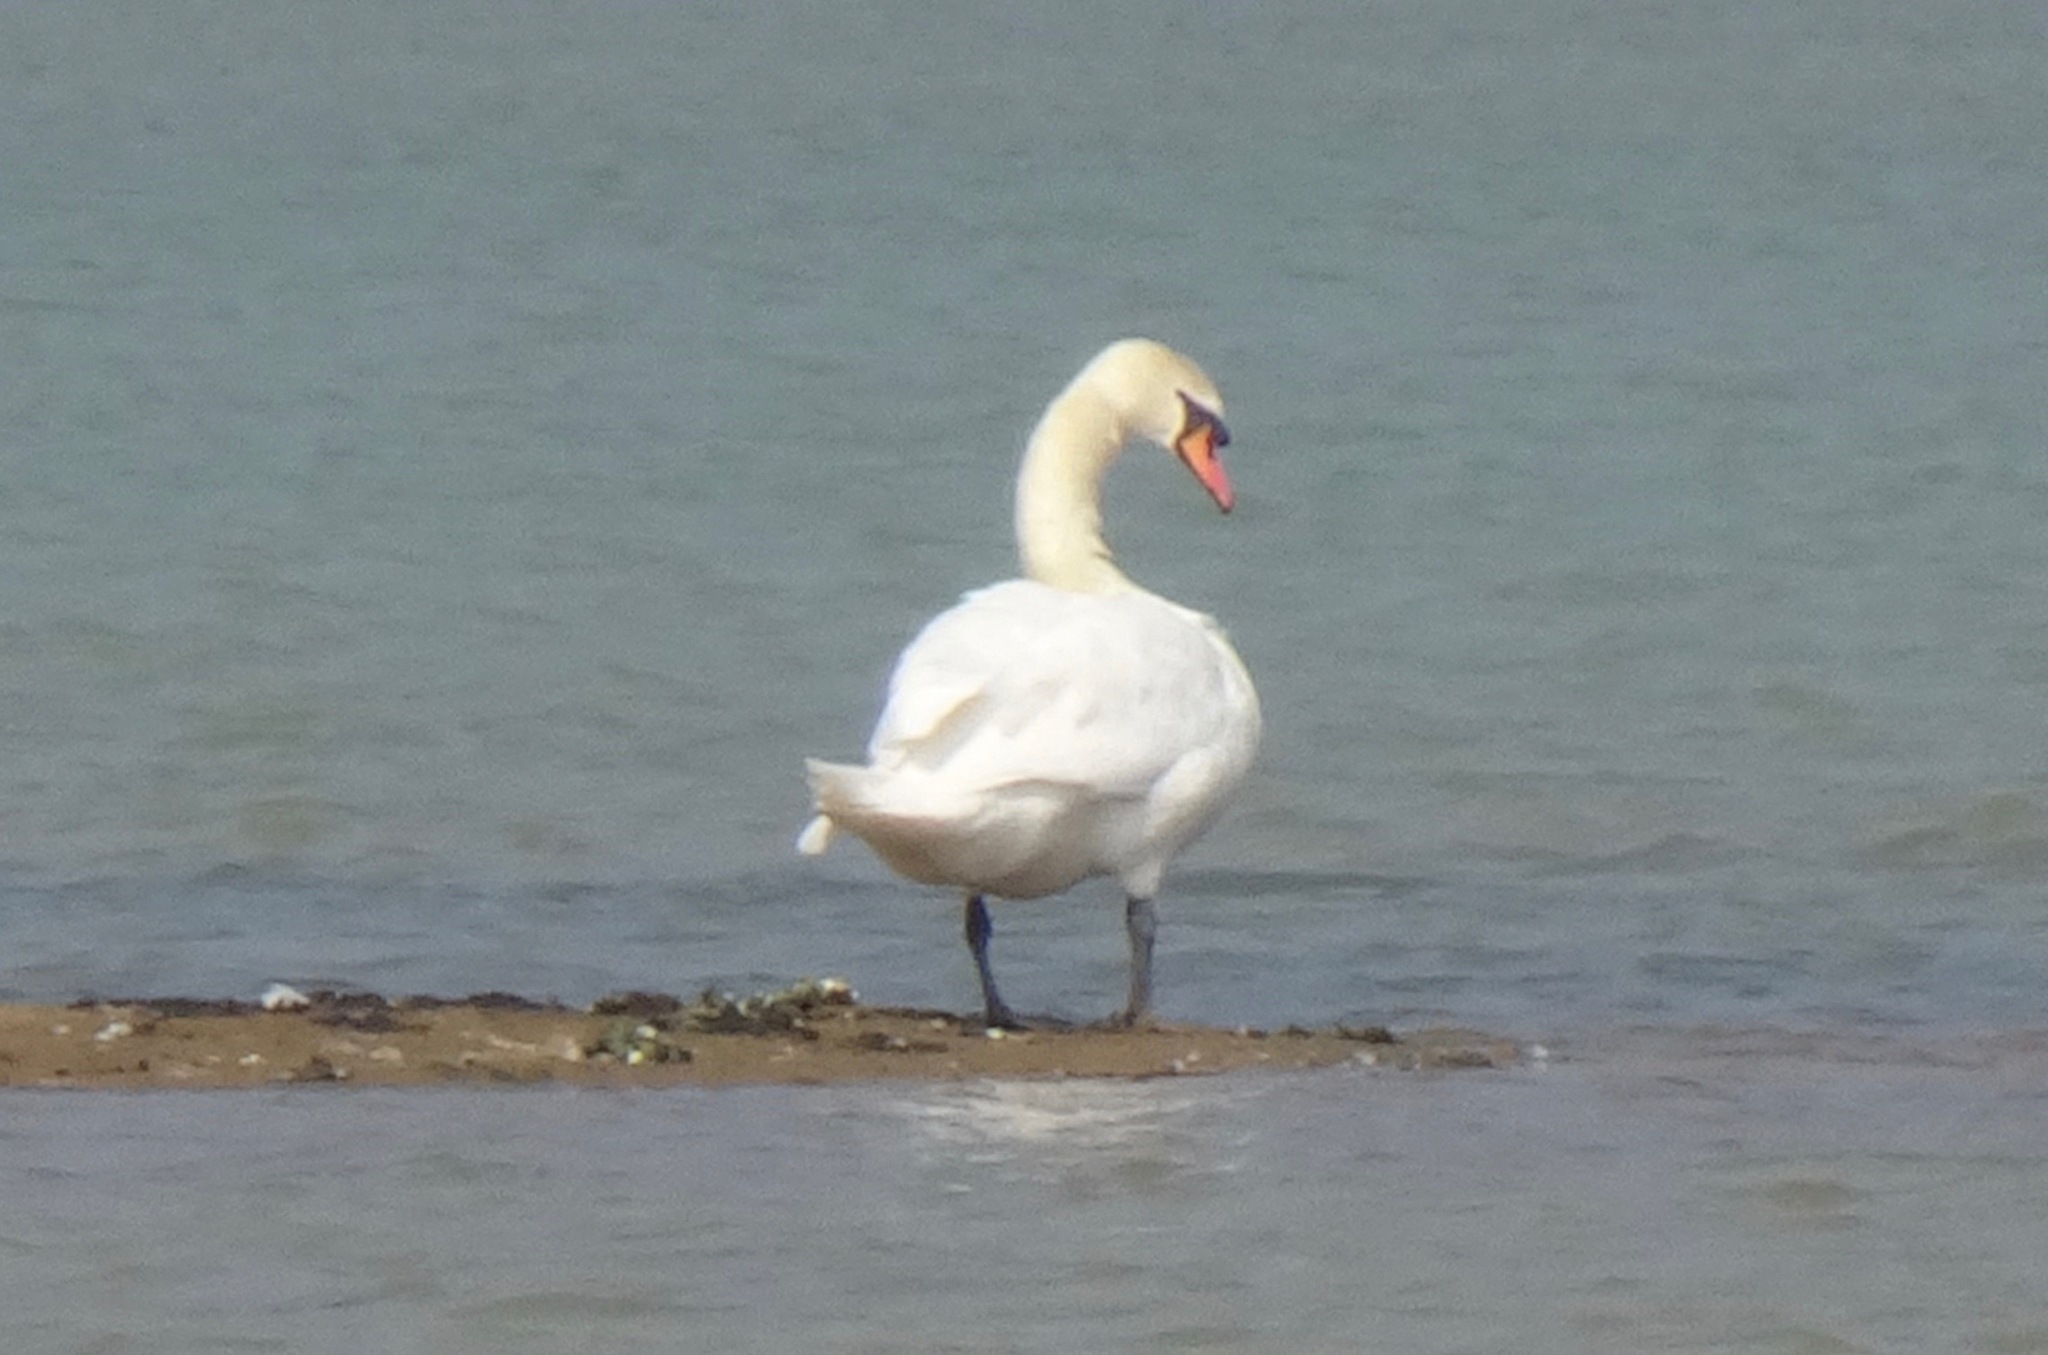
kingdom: Animalia
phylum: Chordata
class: Aves
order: Anseriformes
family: Anatidae
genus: Cygnus
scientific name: Cygnus olor
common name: Mute swan
